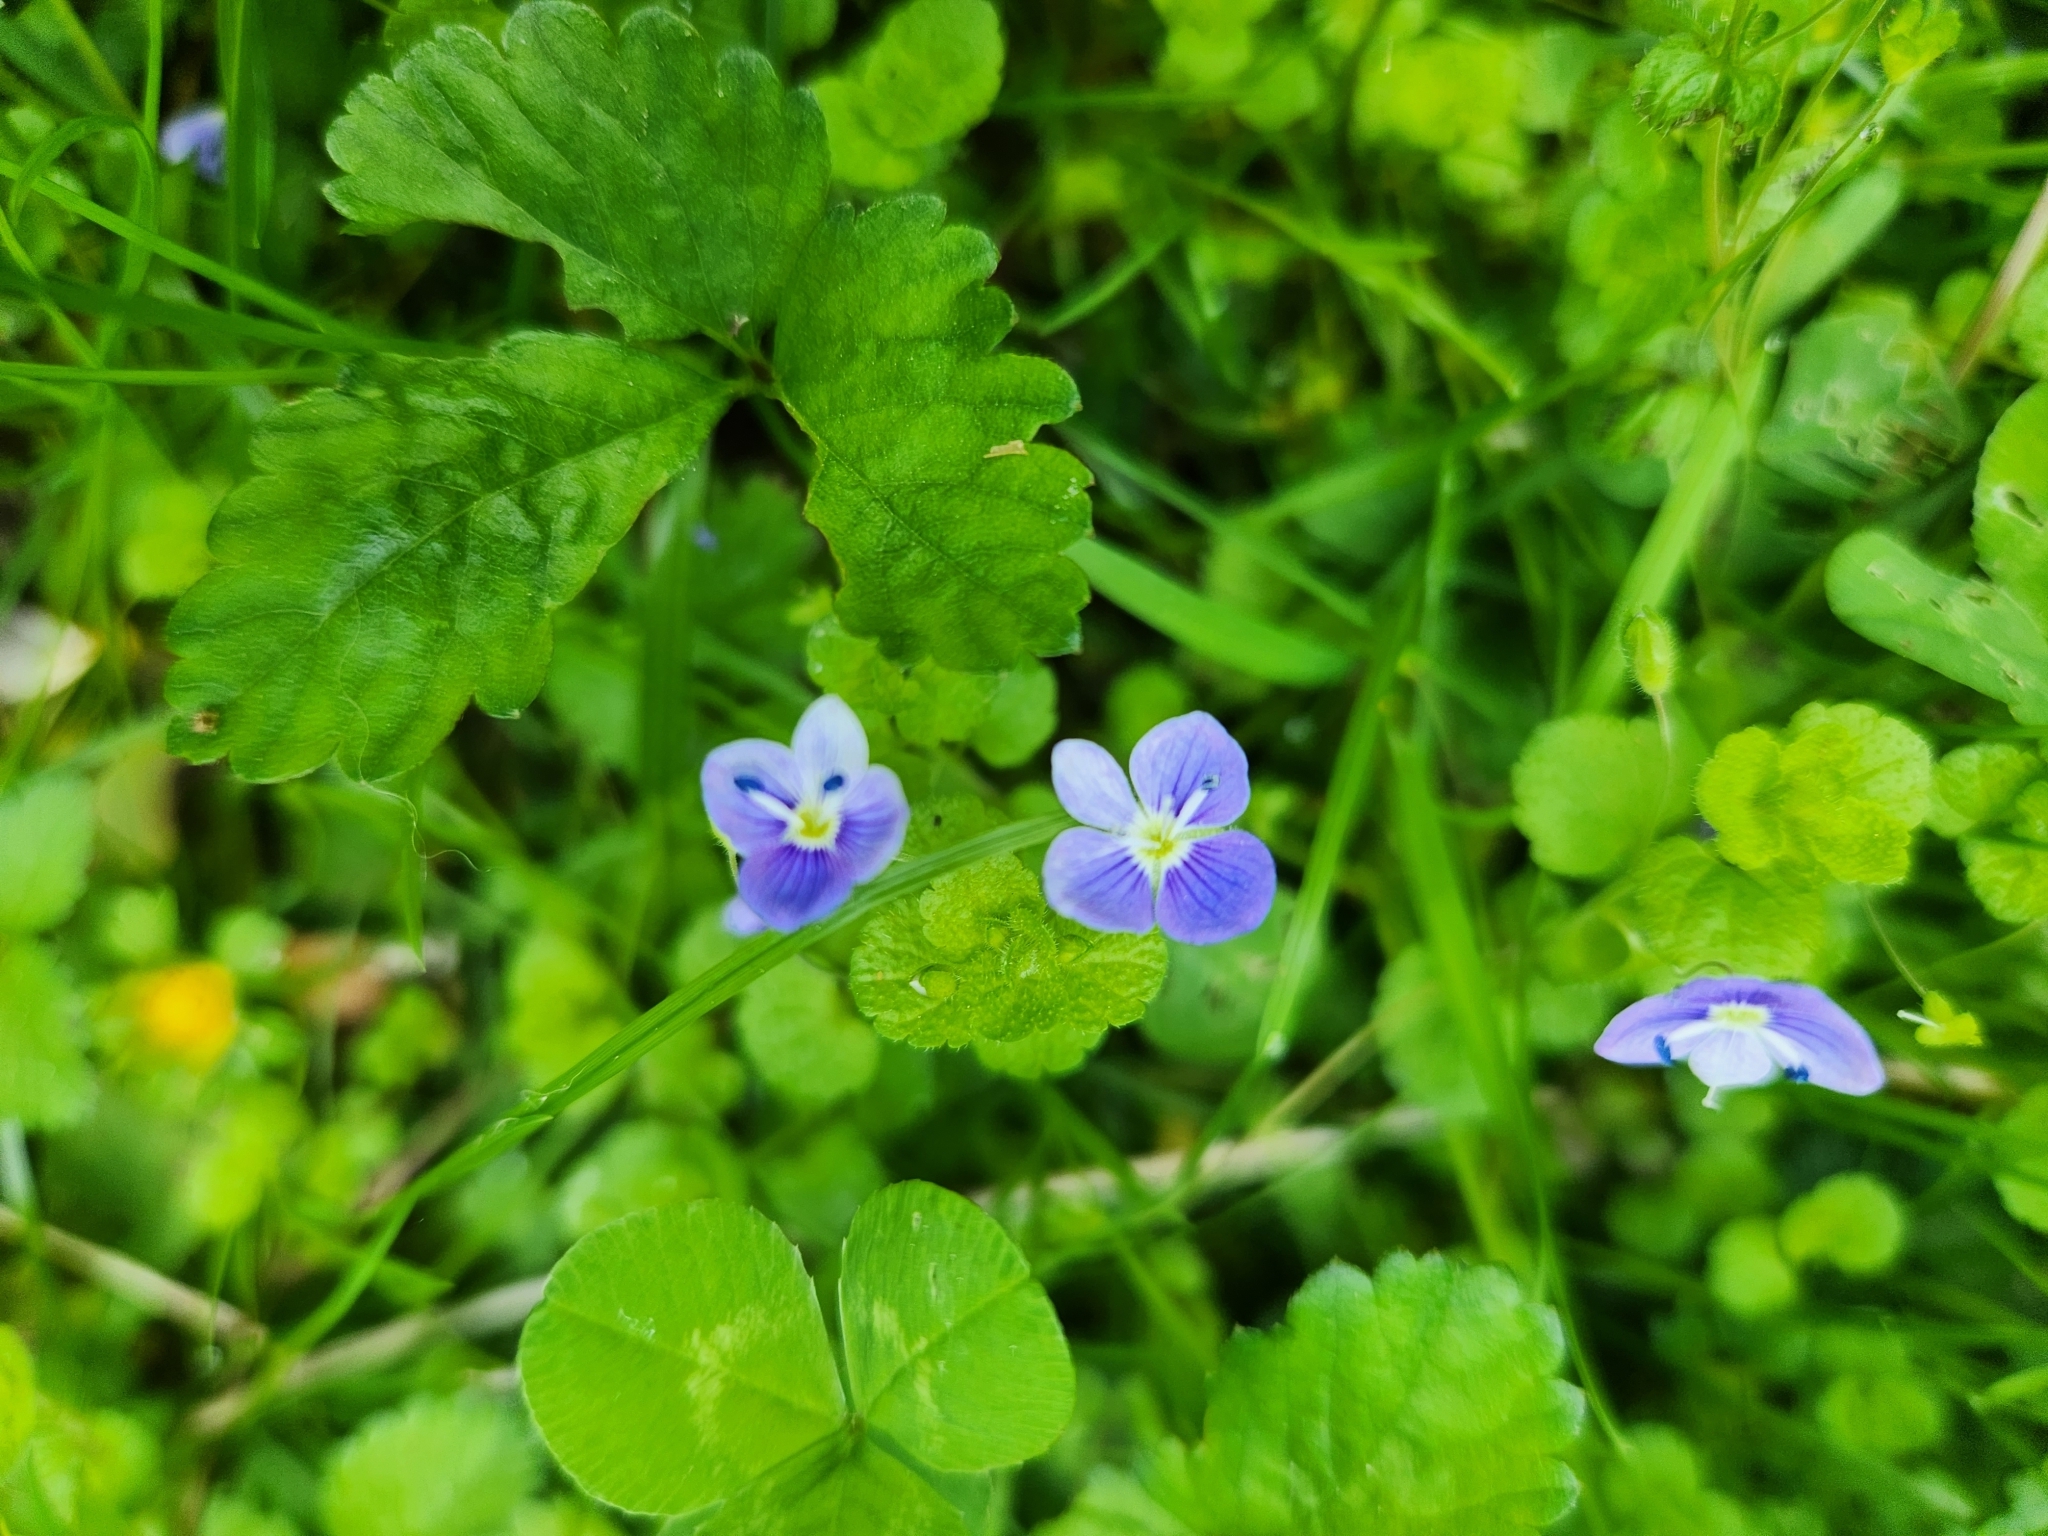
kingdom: Plantae
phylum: Tracheophyta
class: Magnoliopsida
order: Lamiales
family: Plantaginaceae
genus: Veronica
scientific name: Veronica filiformis
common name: Slender speedwell
